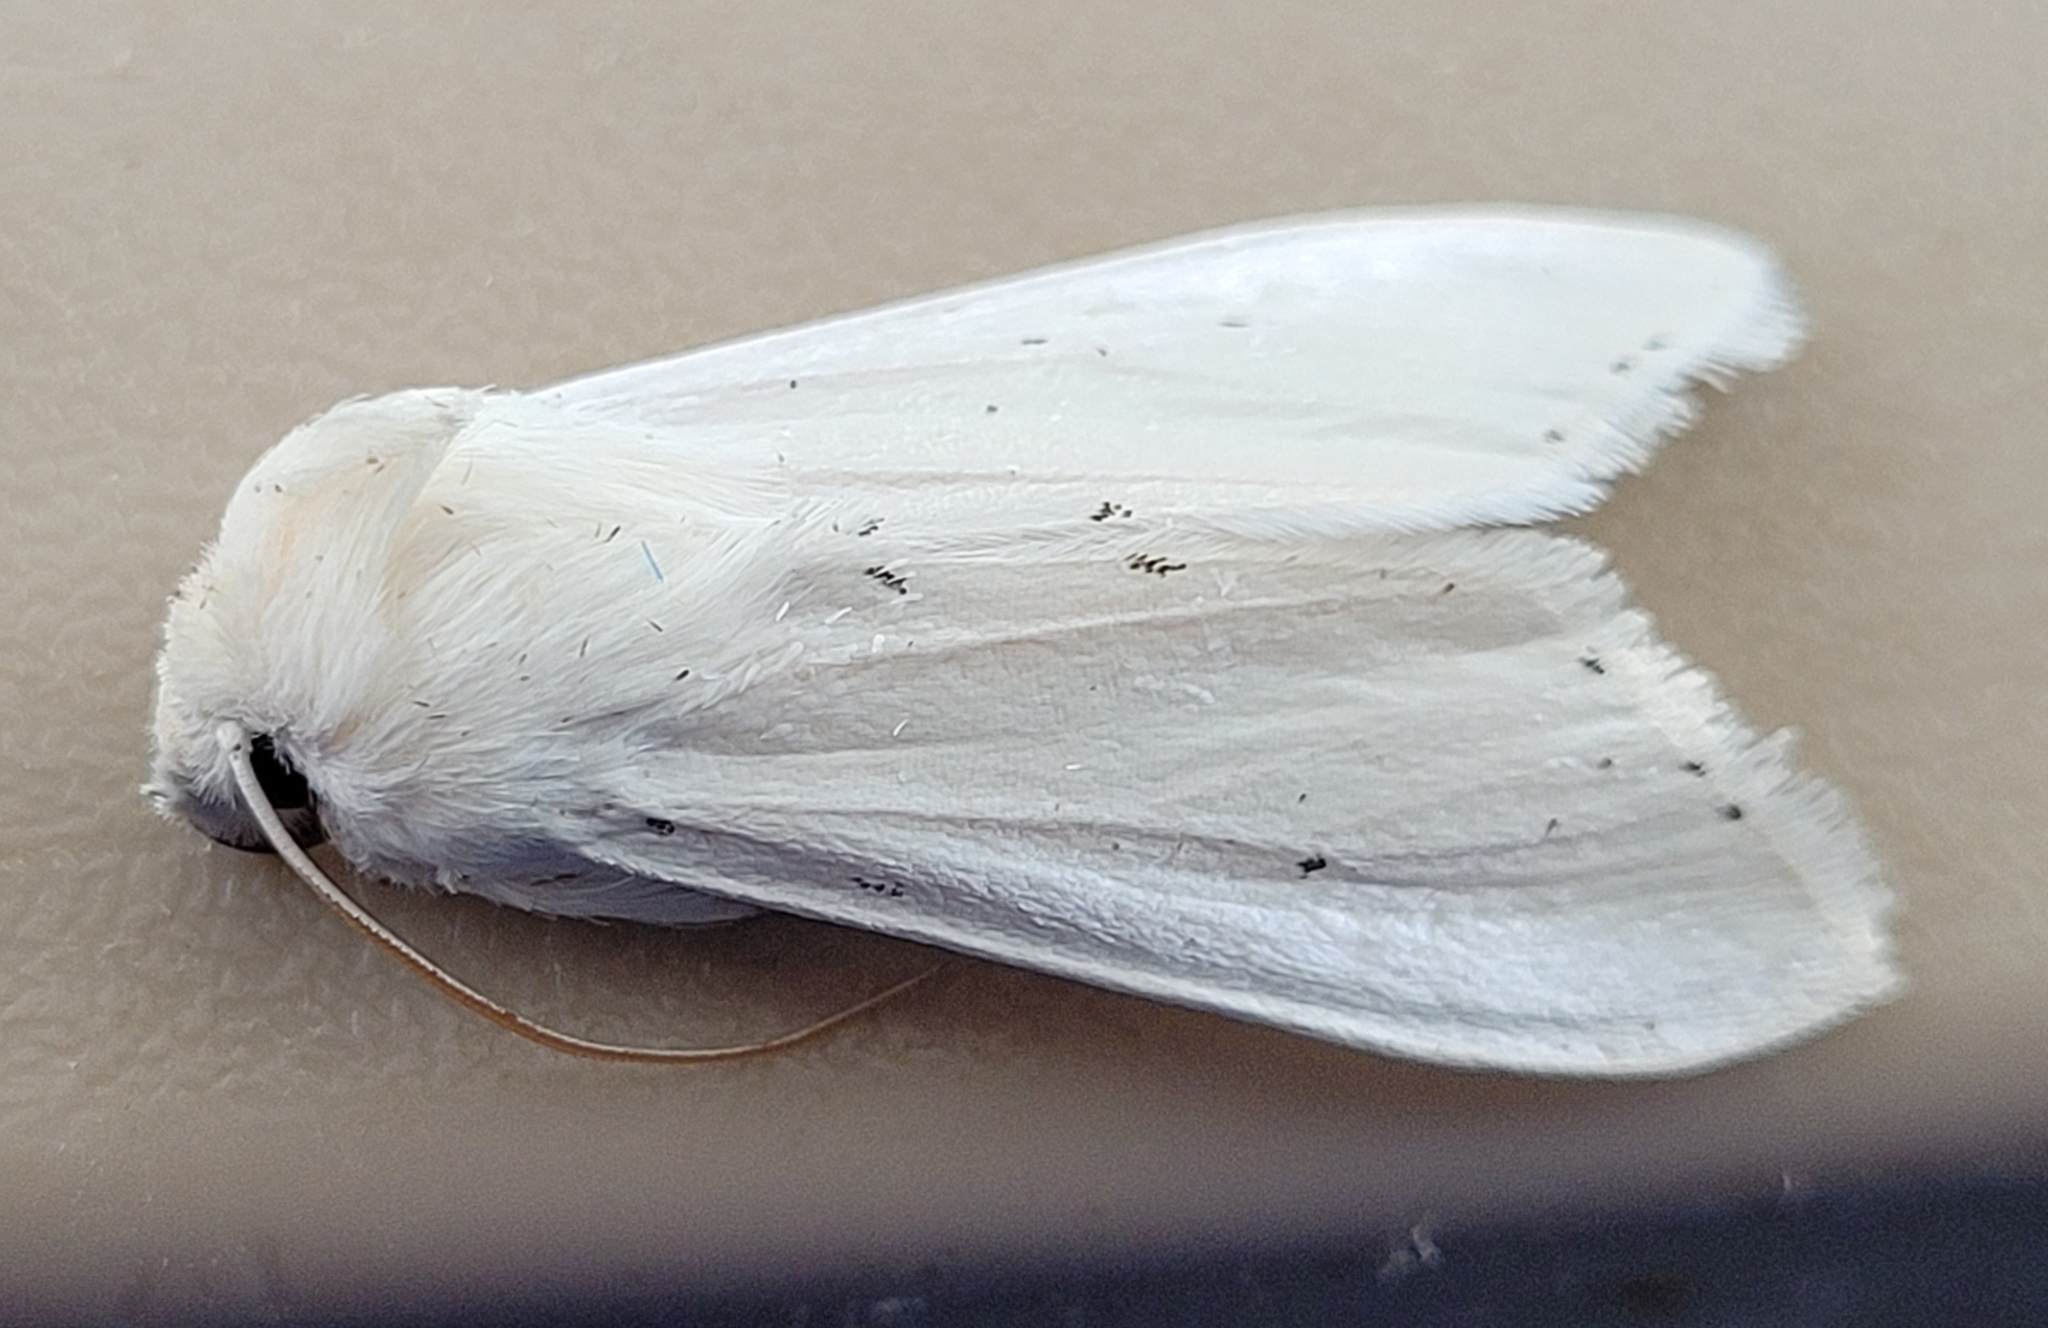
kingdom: Animalia
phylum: Arthropoda
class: Insecta
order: Lepidoptera
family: Noctuidae
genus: Cucullia
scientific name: Cucullia luna
